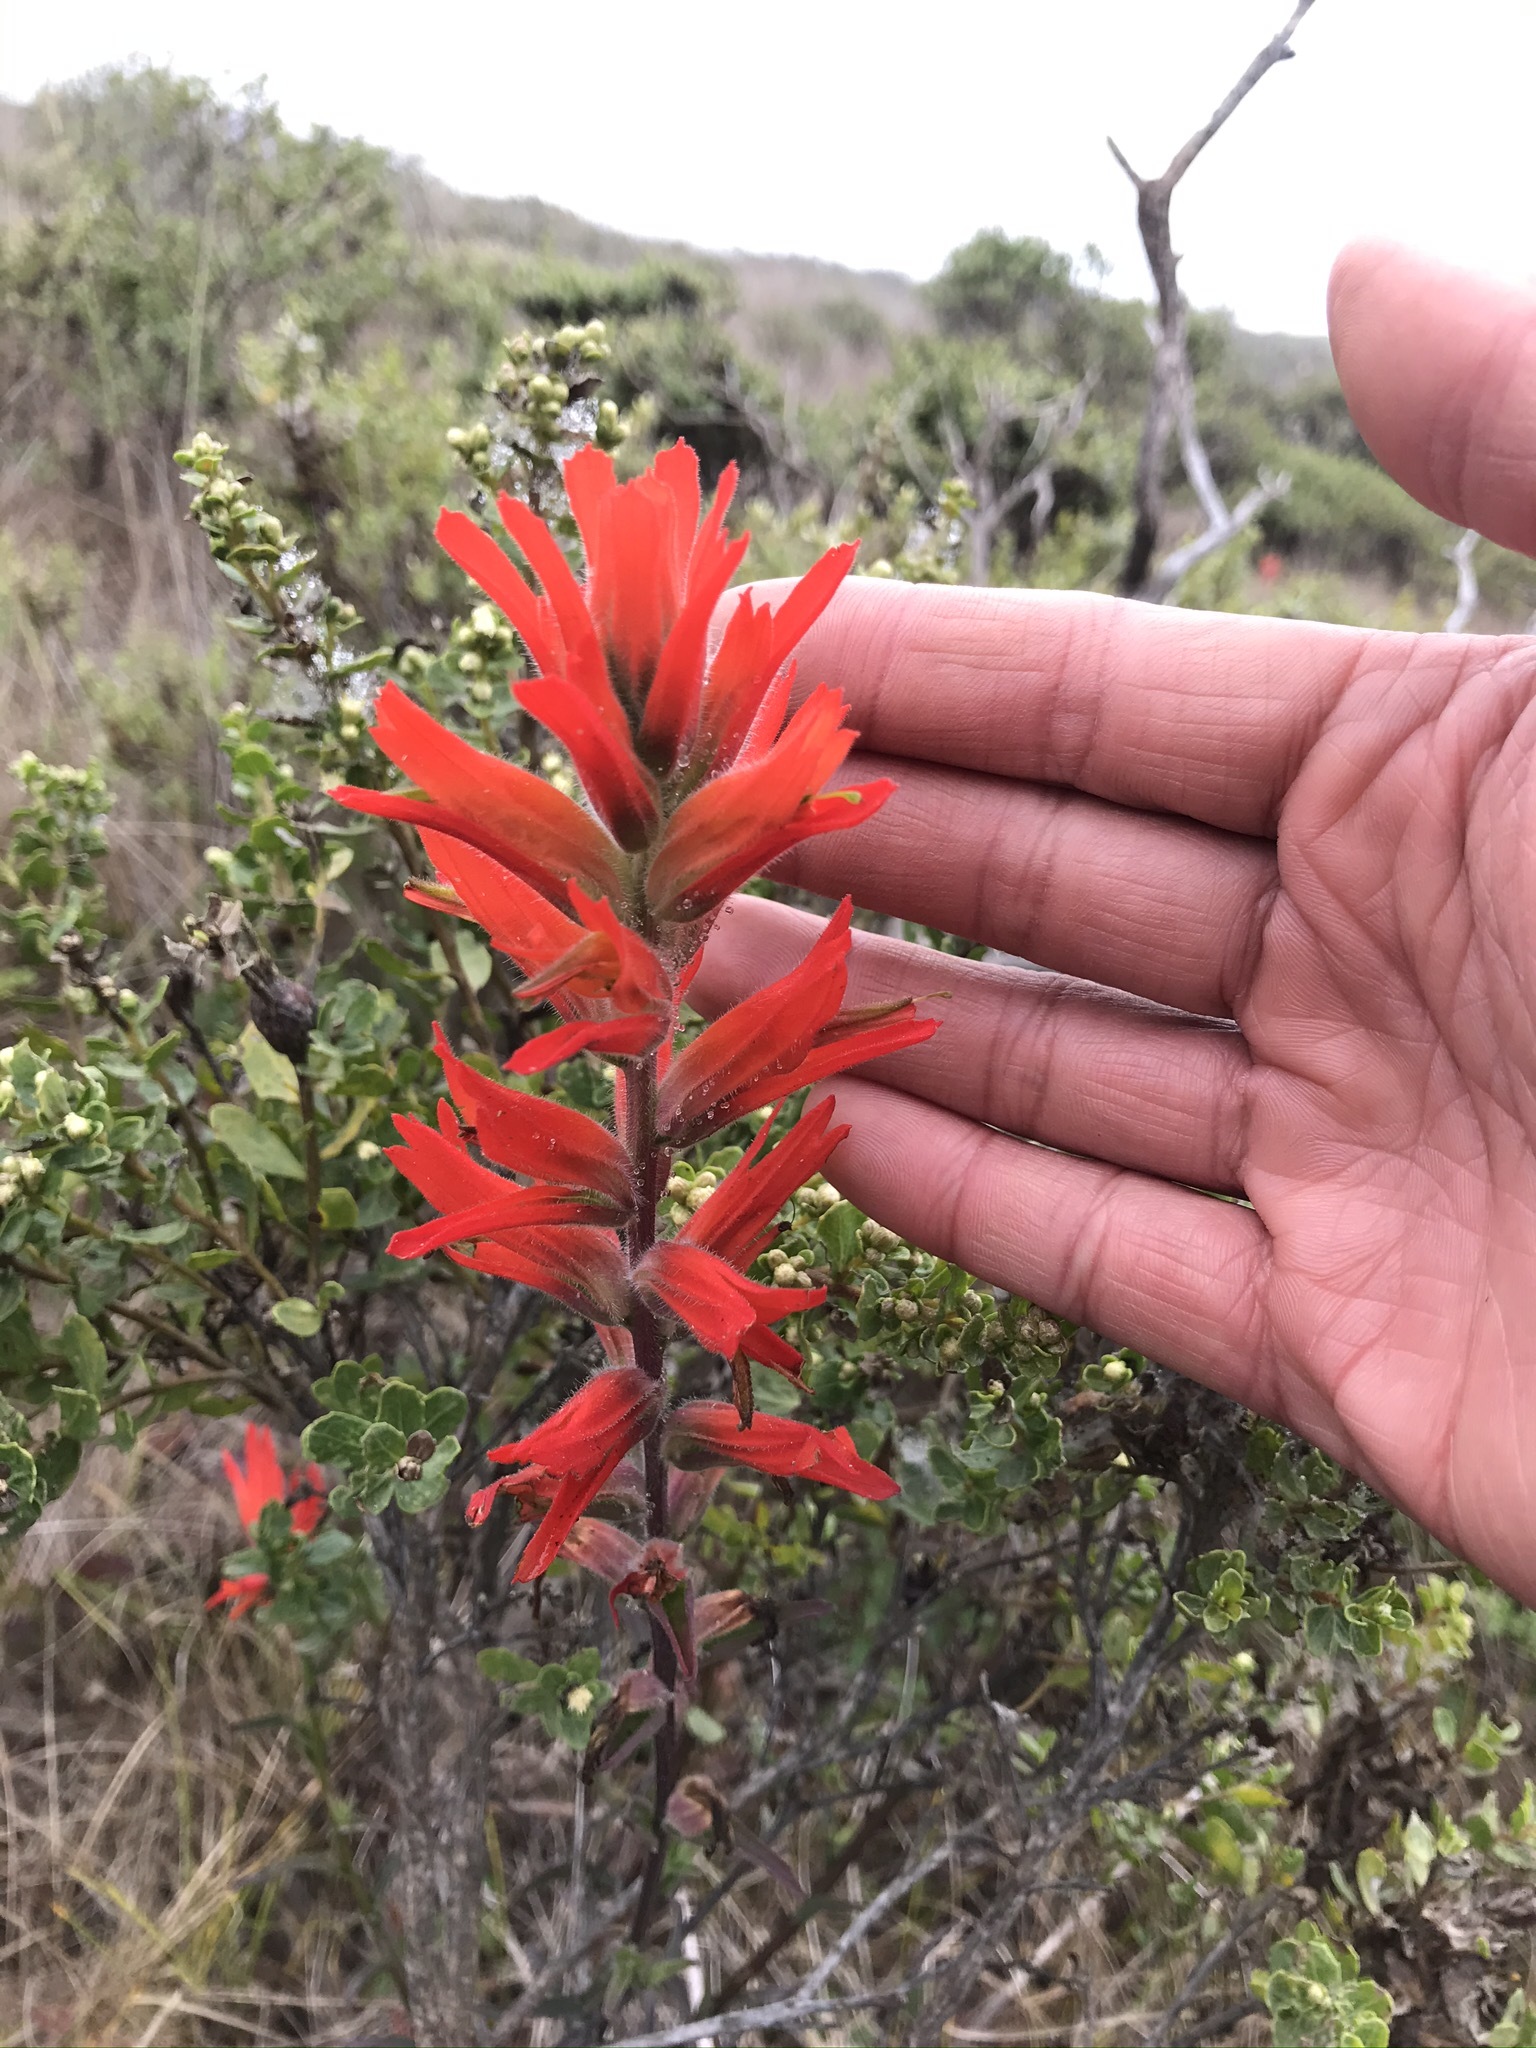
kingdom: Plantae
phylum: Tracheophyta
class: Magnoliopsida
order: Lamiales
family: Orobanchaceae
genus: Castilleja
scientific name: Castilleja subinclusa
